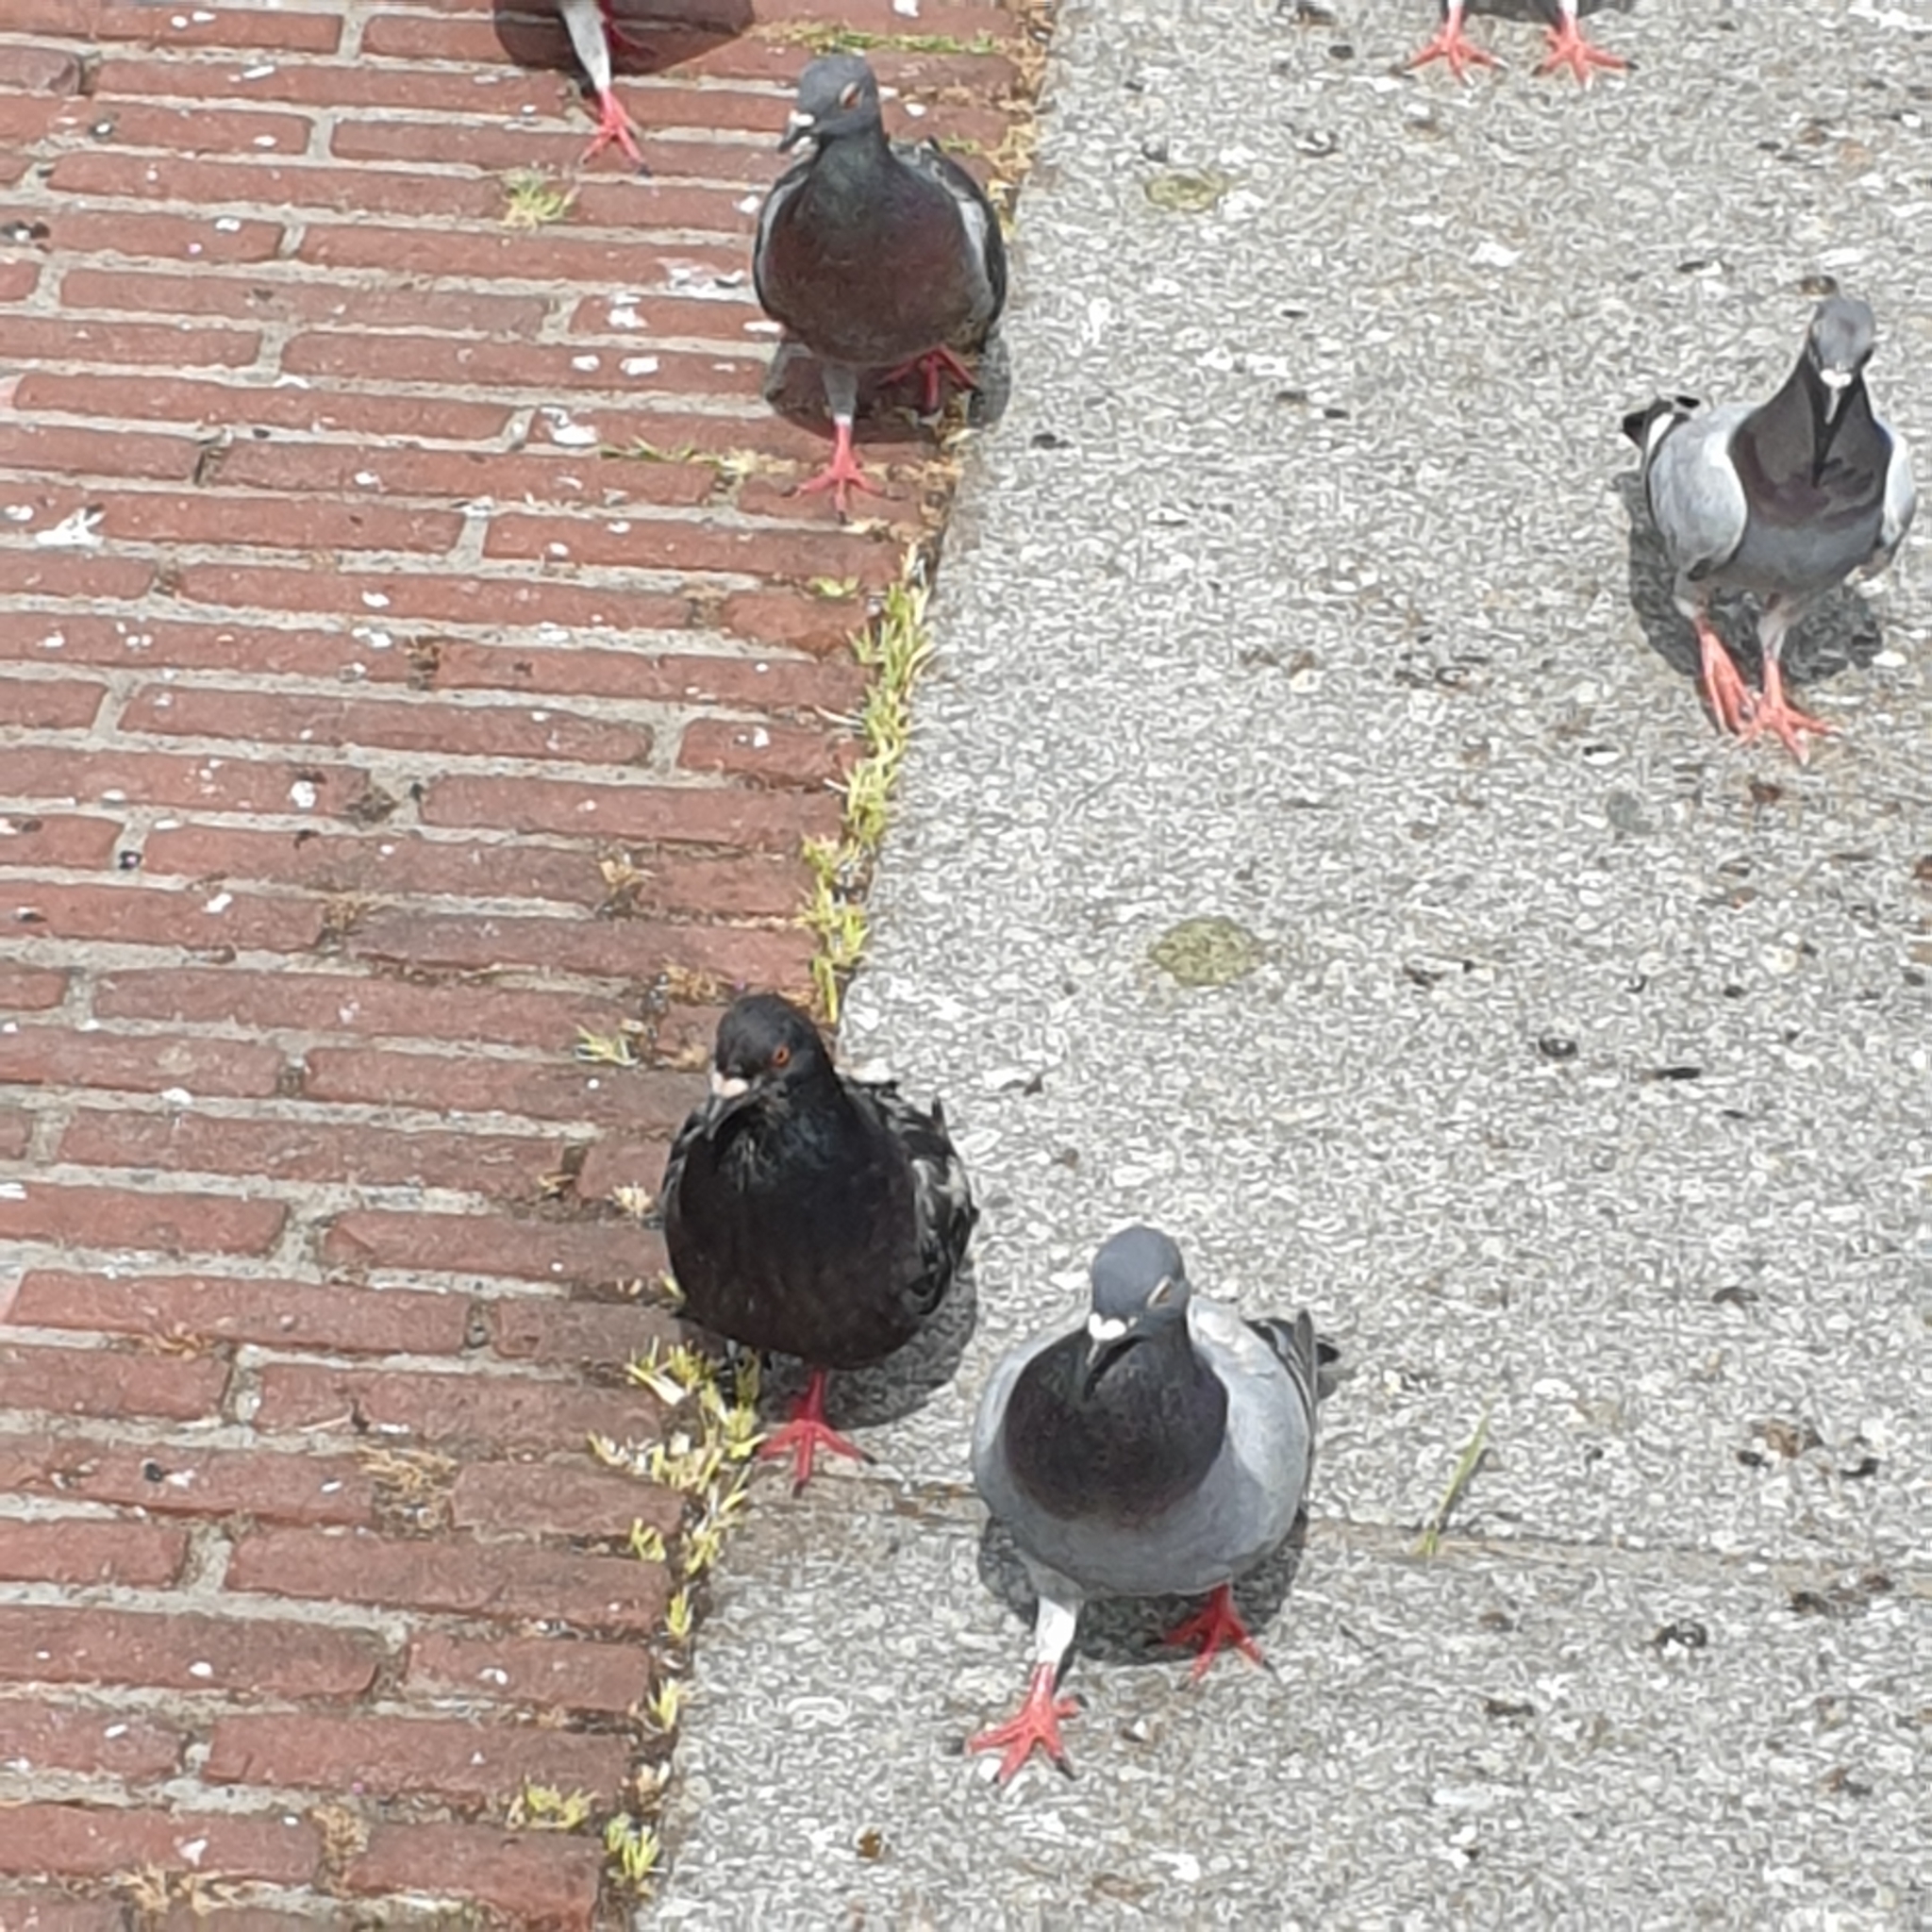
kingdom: Animalia
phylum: Chordata
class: Aves
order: Columbiformes
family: Columbidae
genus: Columba
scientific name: Columba livia
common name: Rock pigeon
